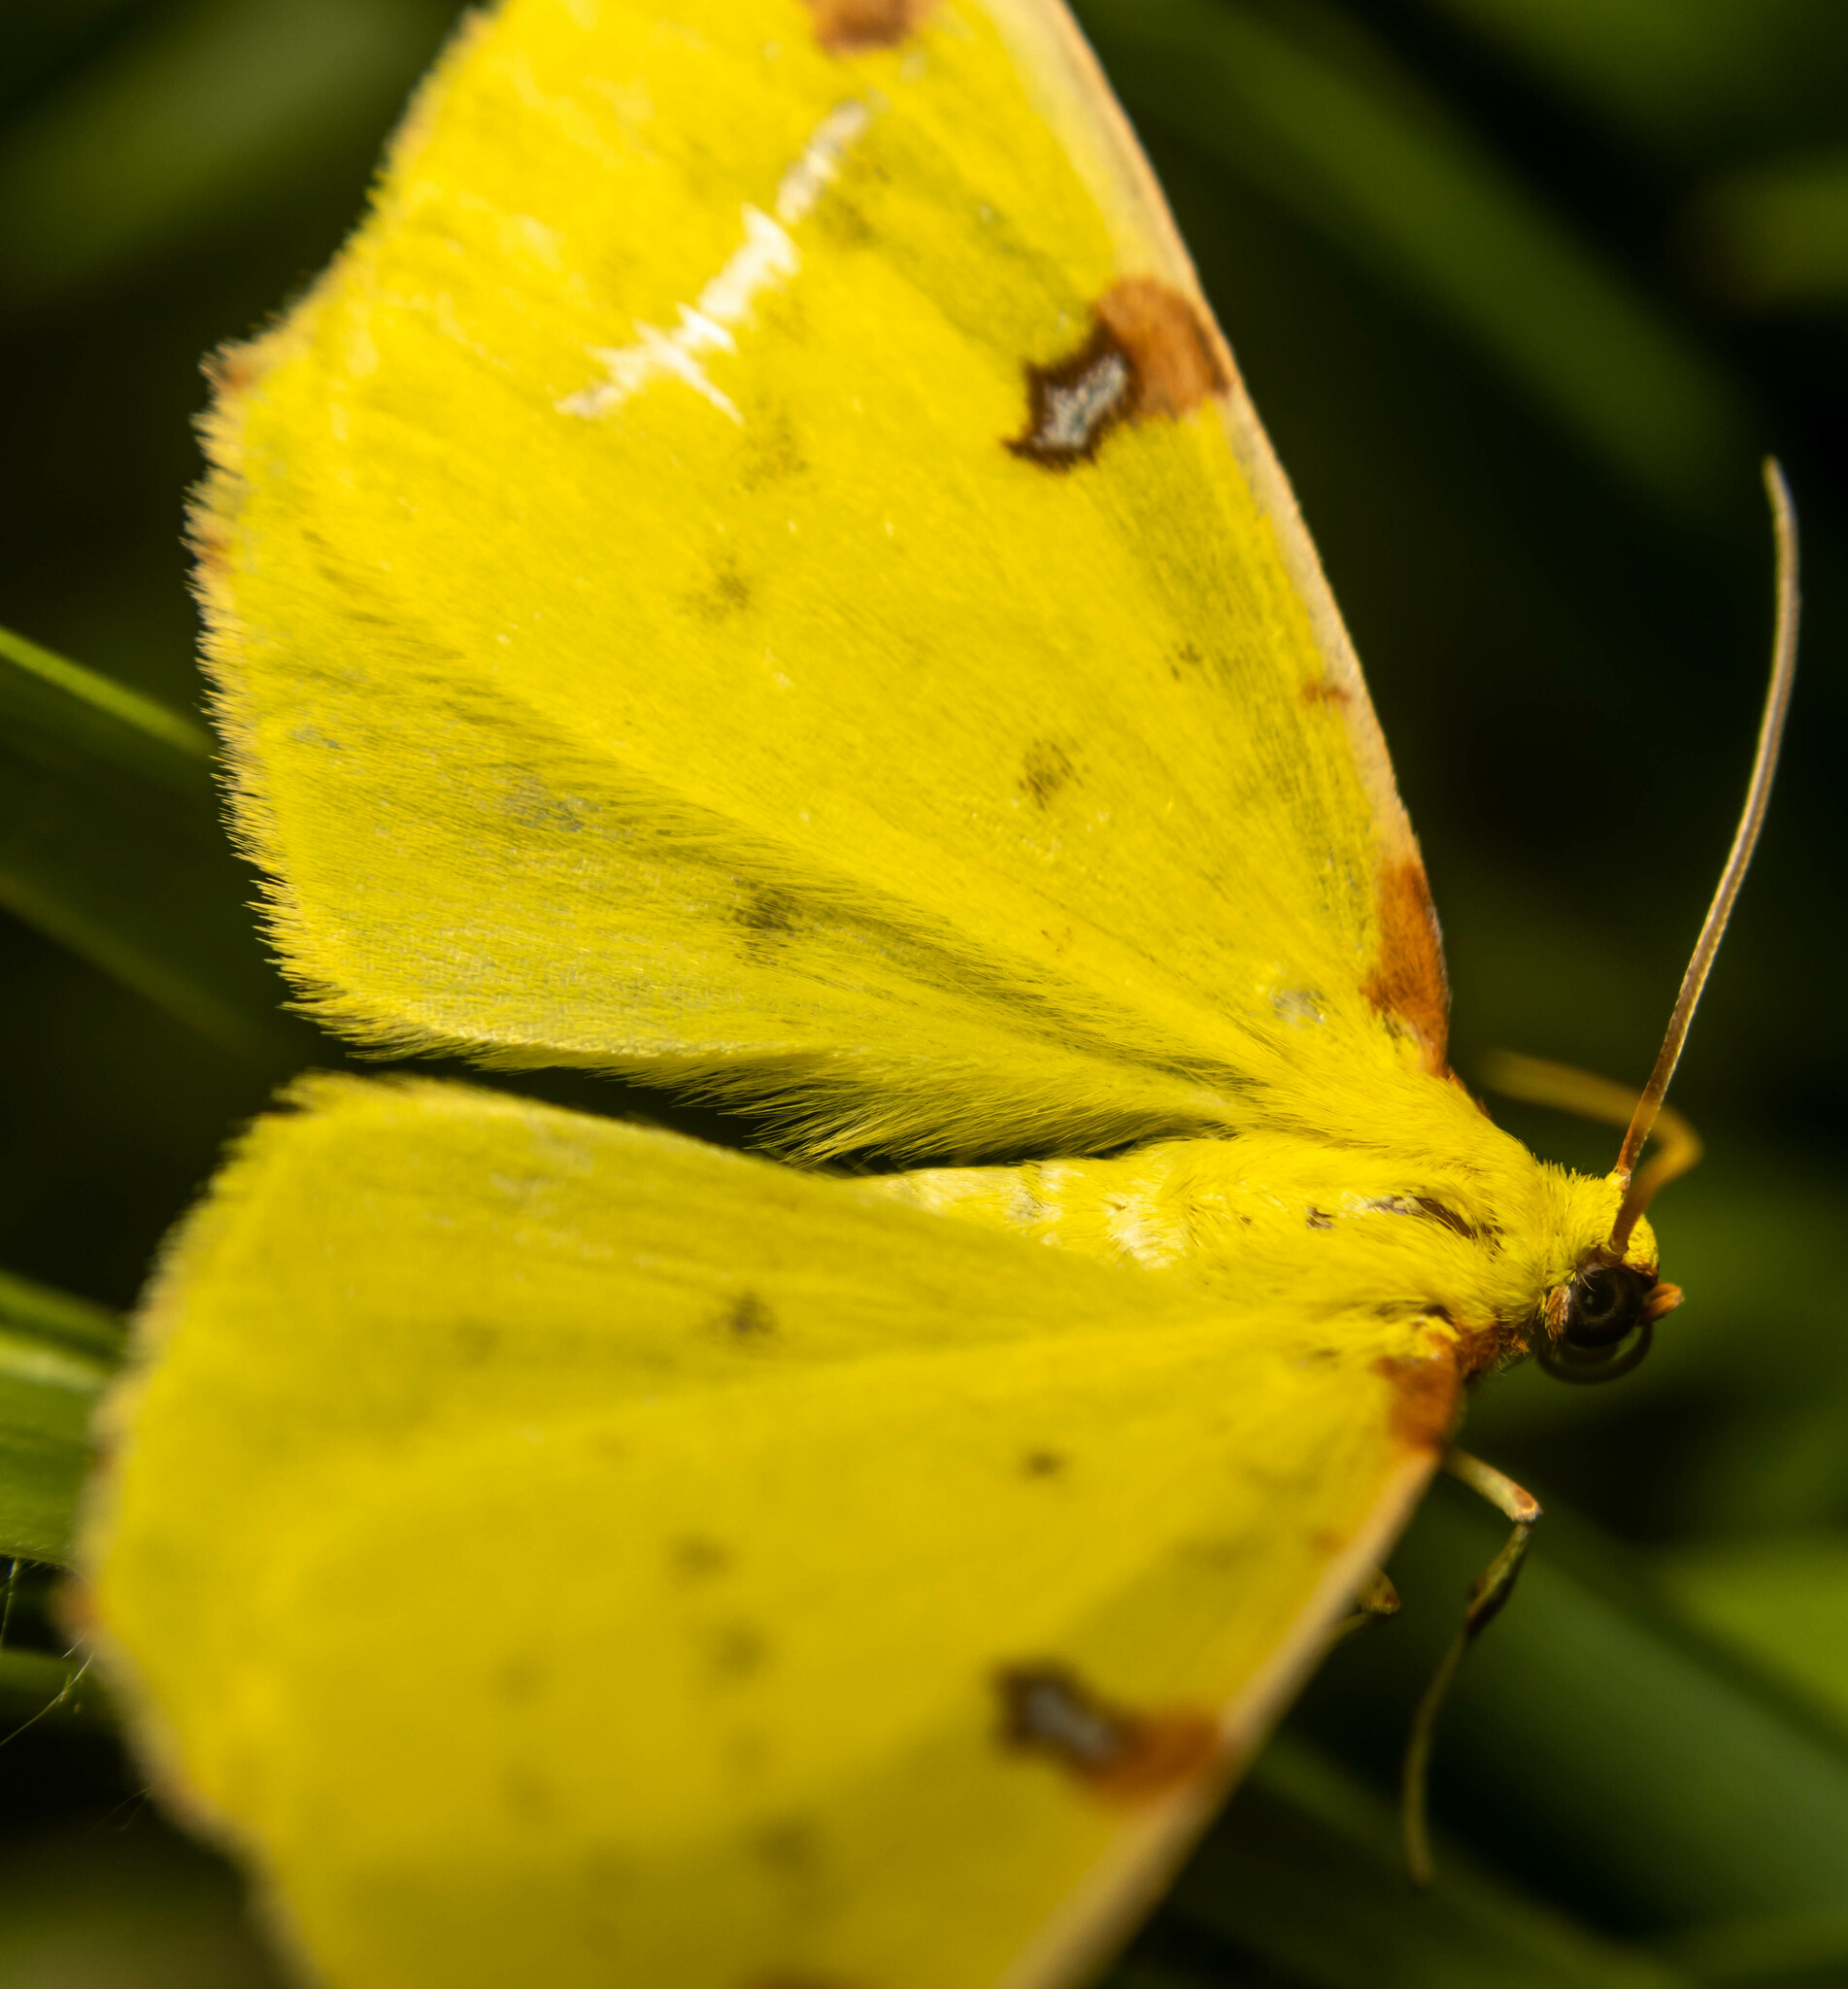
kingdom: Animalia
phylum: Arthropoda
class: Insecta
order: Lepidoptera
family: Geometridae
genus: Opisthograptis
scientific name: Opisthograptis luteolata
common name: Brimstone moth
